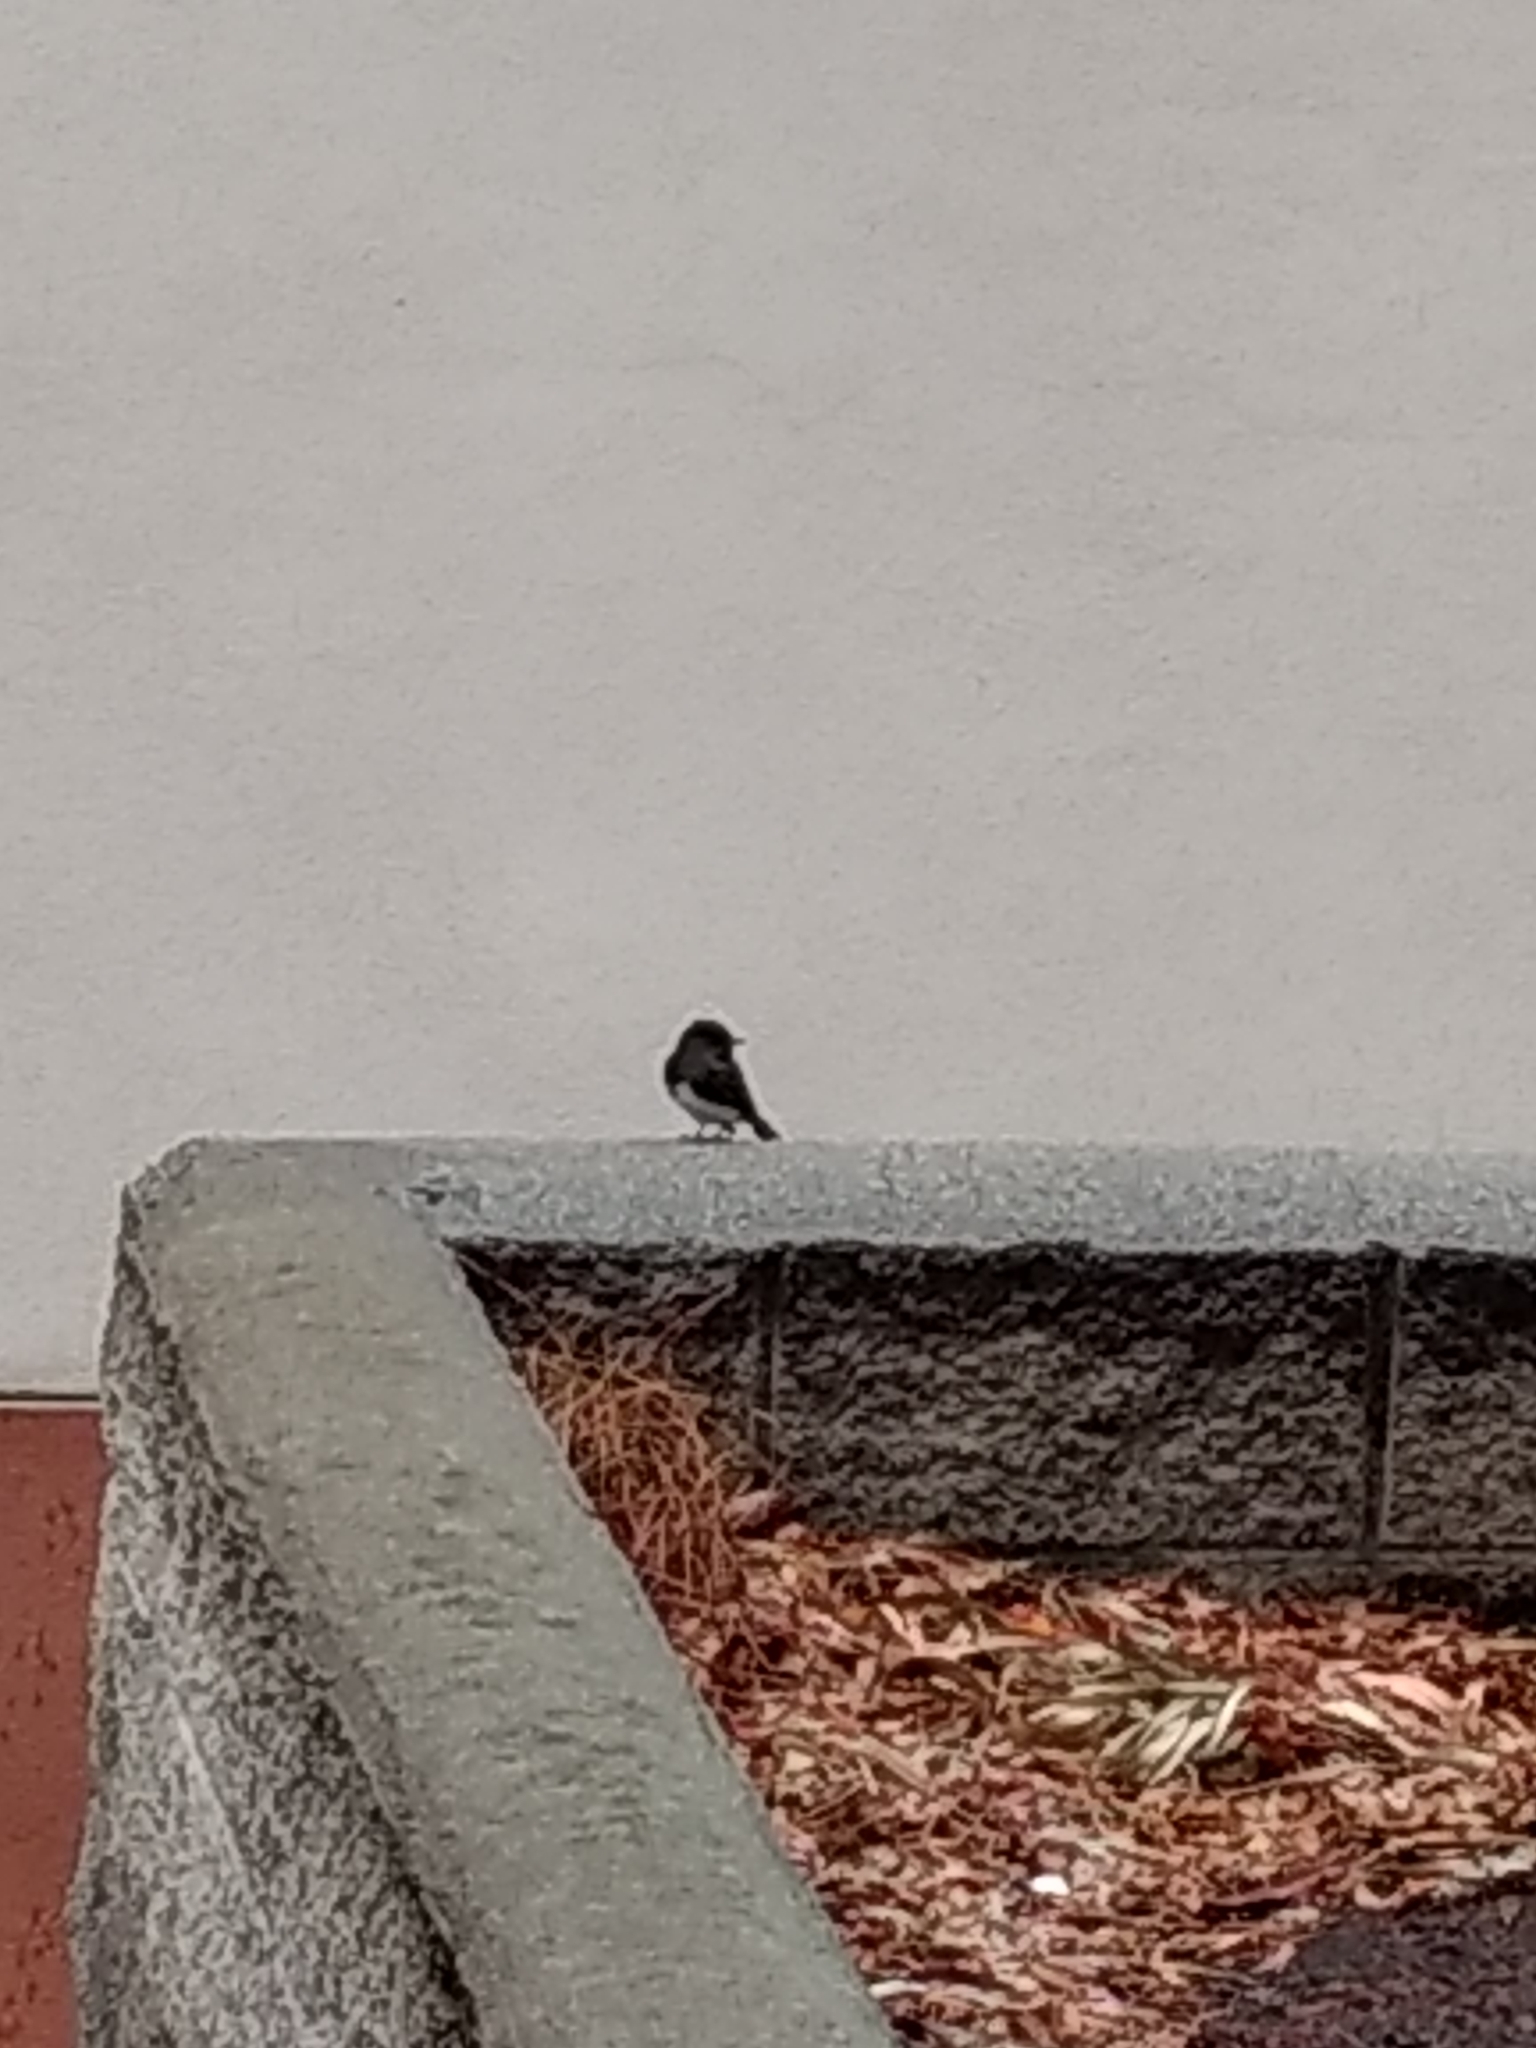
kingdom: Animalia
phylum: Chordata
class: Aves
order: Passeriformes
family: Tyrannidae
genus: Sayornis
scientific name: Sayornis nigricans
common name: Black phoebe
